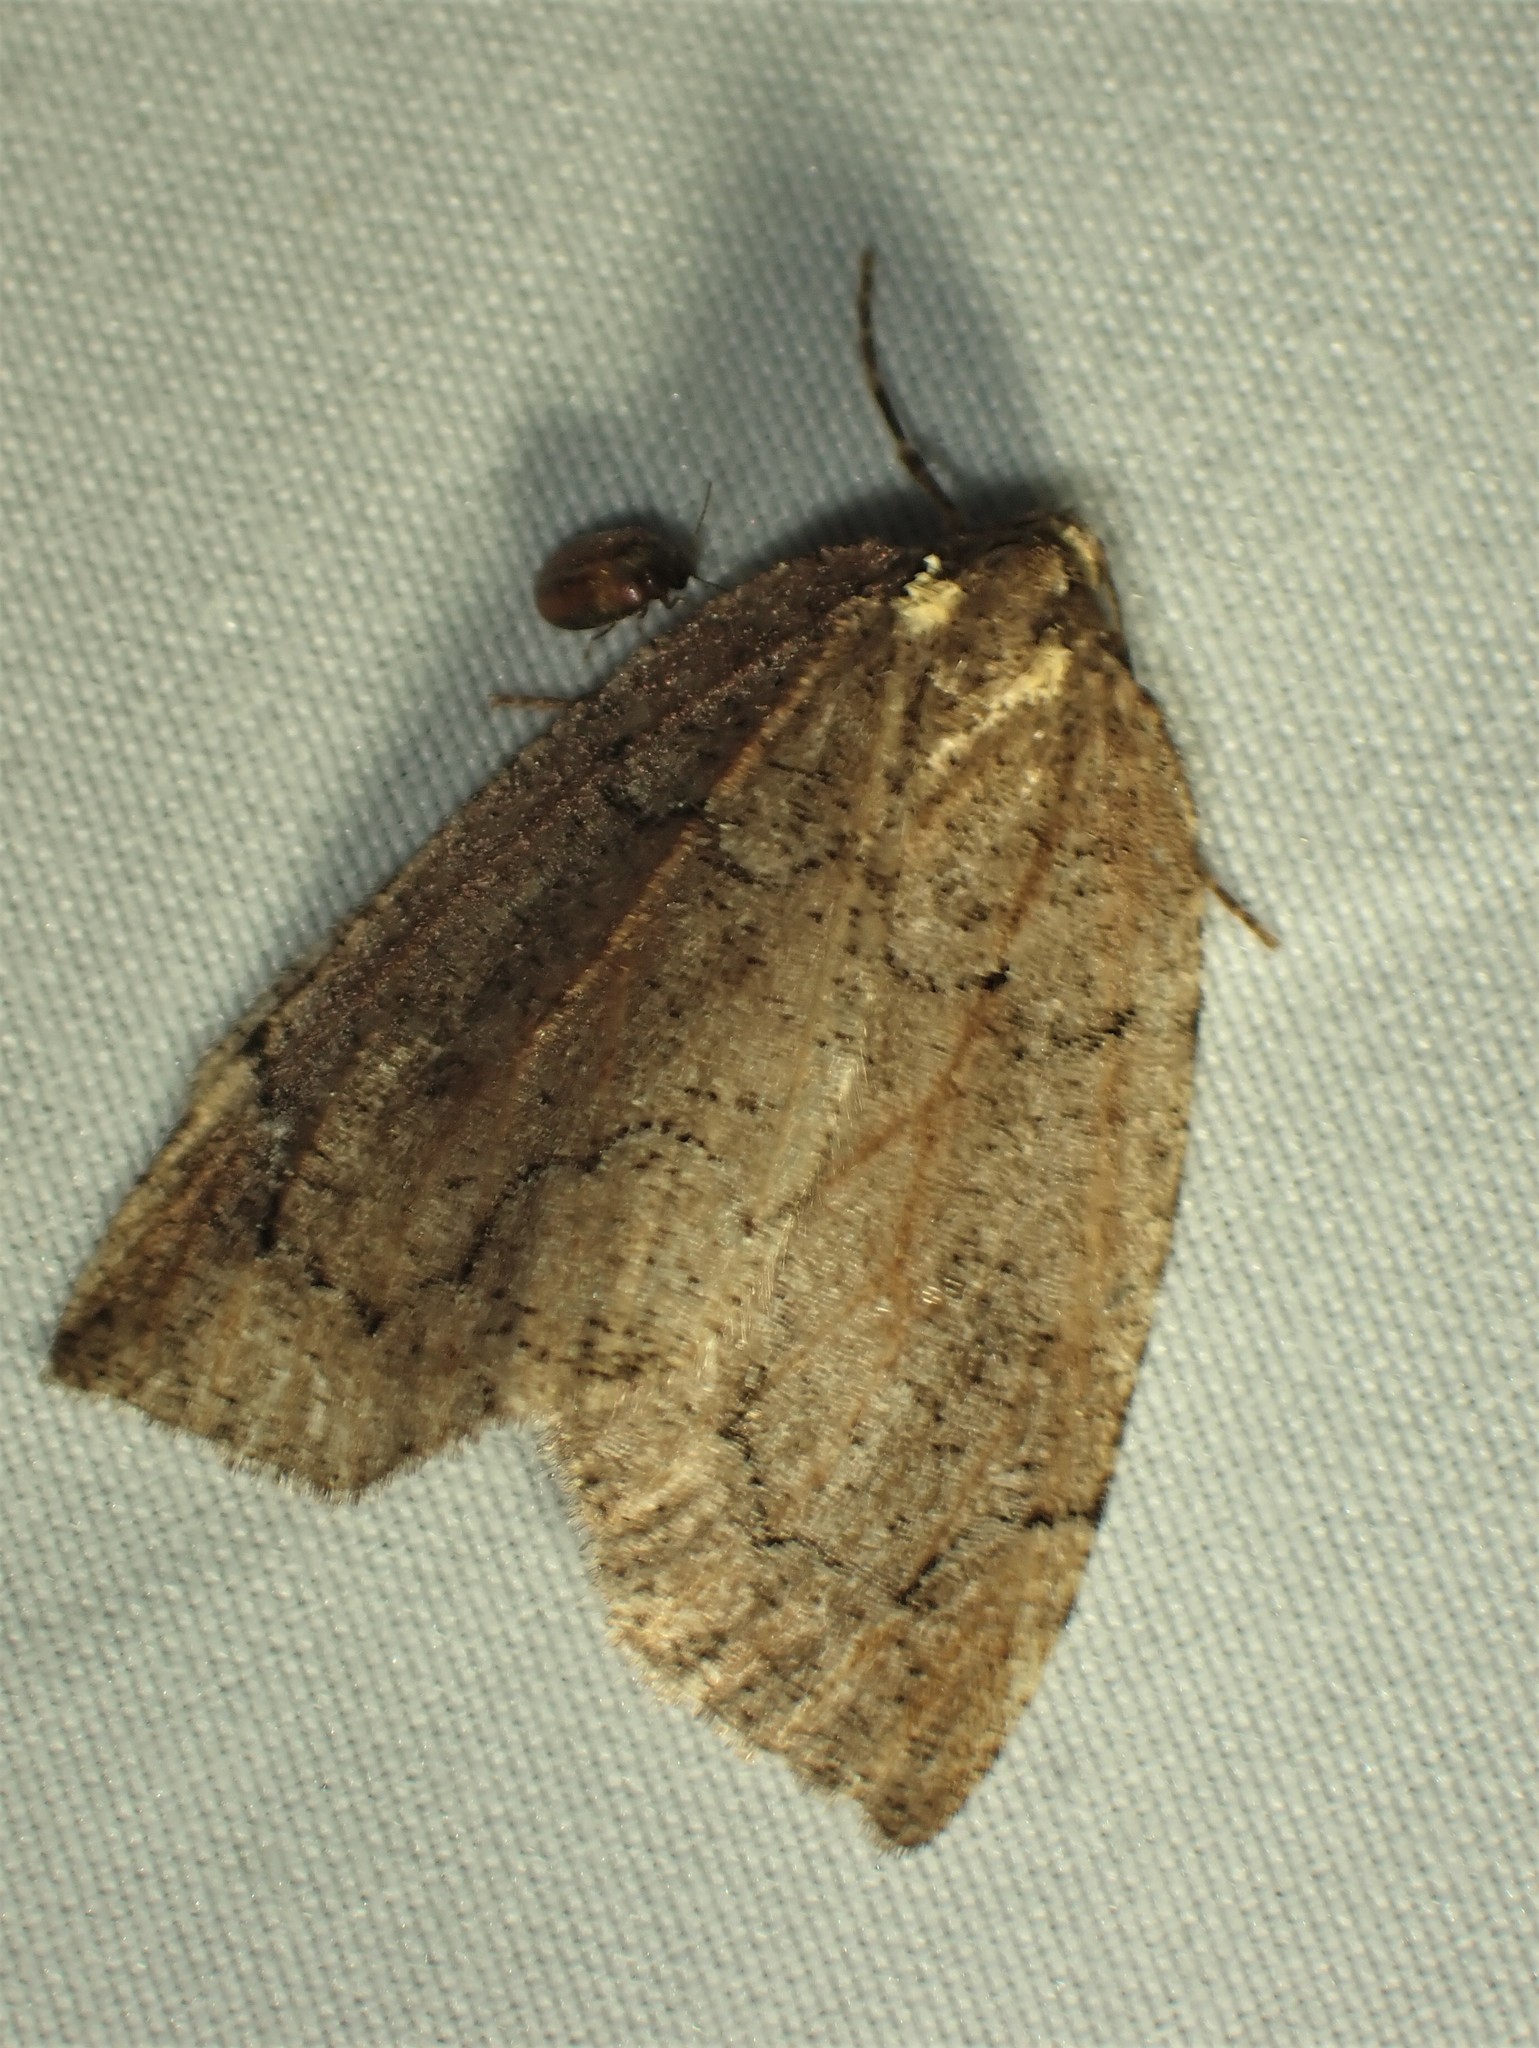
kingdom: Animalia
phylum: Arthropoda
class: Insecta
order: Lepidoptera
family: Geometridae
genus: Spodolepis
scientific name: Spodolepis substriataria
